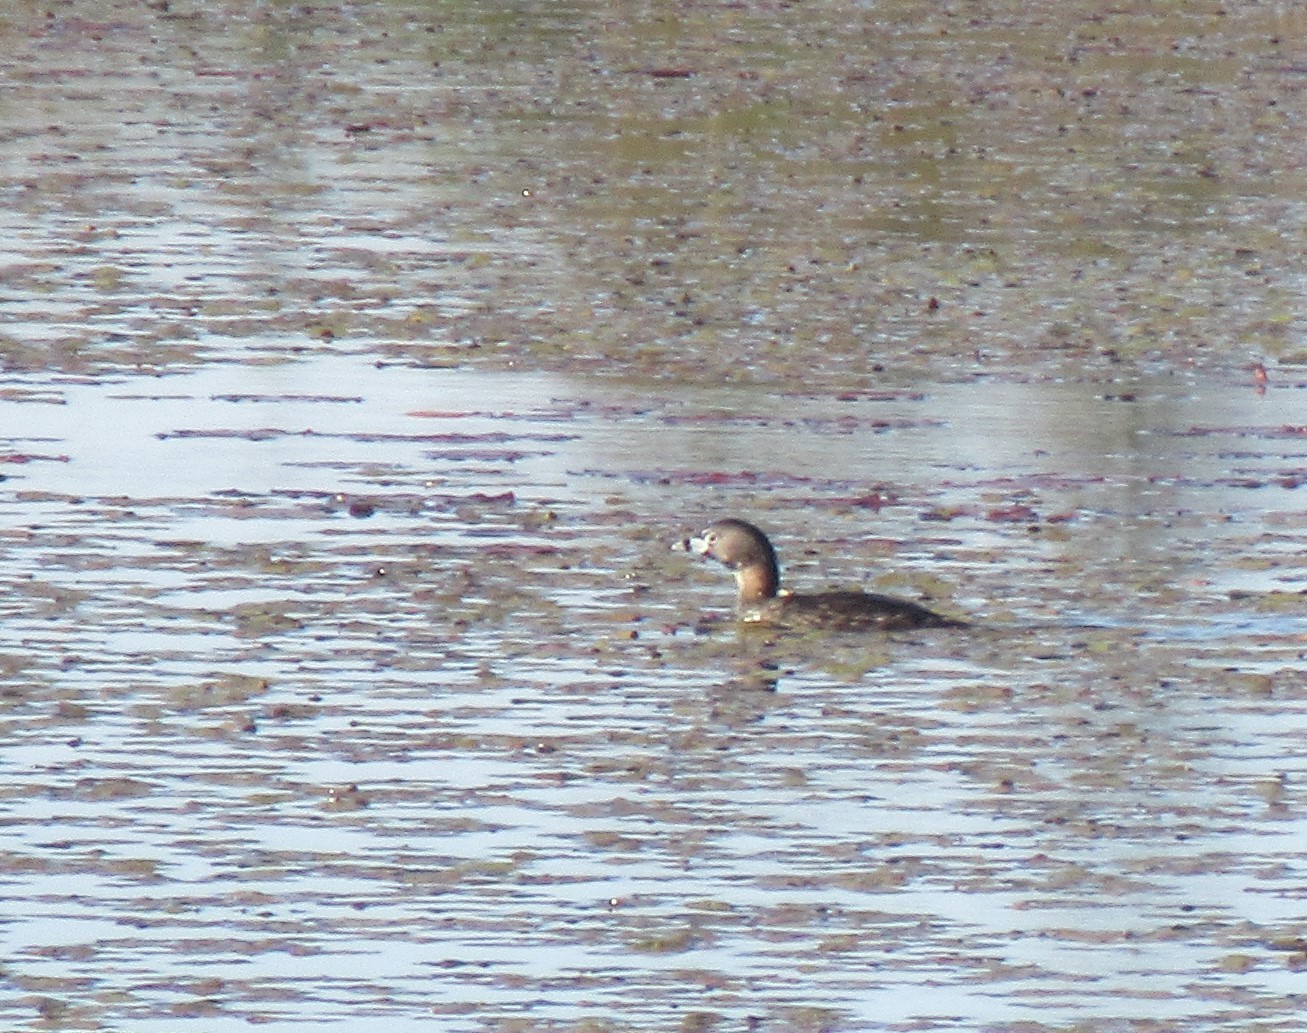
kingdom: Animalia
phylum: Chordata
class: Aves
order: Podicipediformes
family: Podicipedidae
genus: Podilymbus
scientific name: Podilymbus podiceps
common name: Pied-billed grebe
